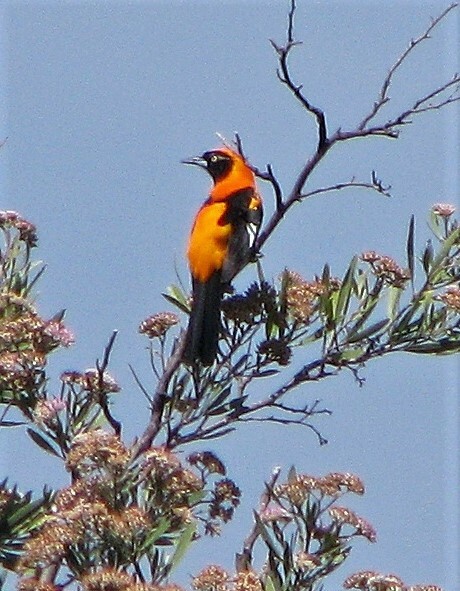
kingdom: Animalia
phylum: Chordata
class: Aves
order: Passeriformes
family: Icteridae
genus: Icterus
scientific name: Icterus icterus
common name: Venezuelan troupial
